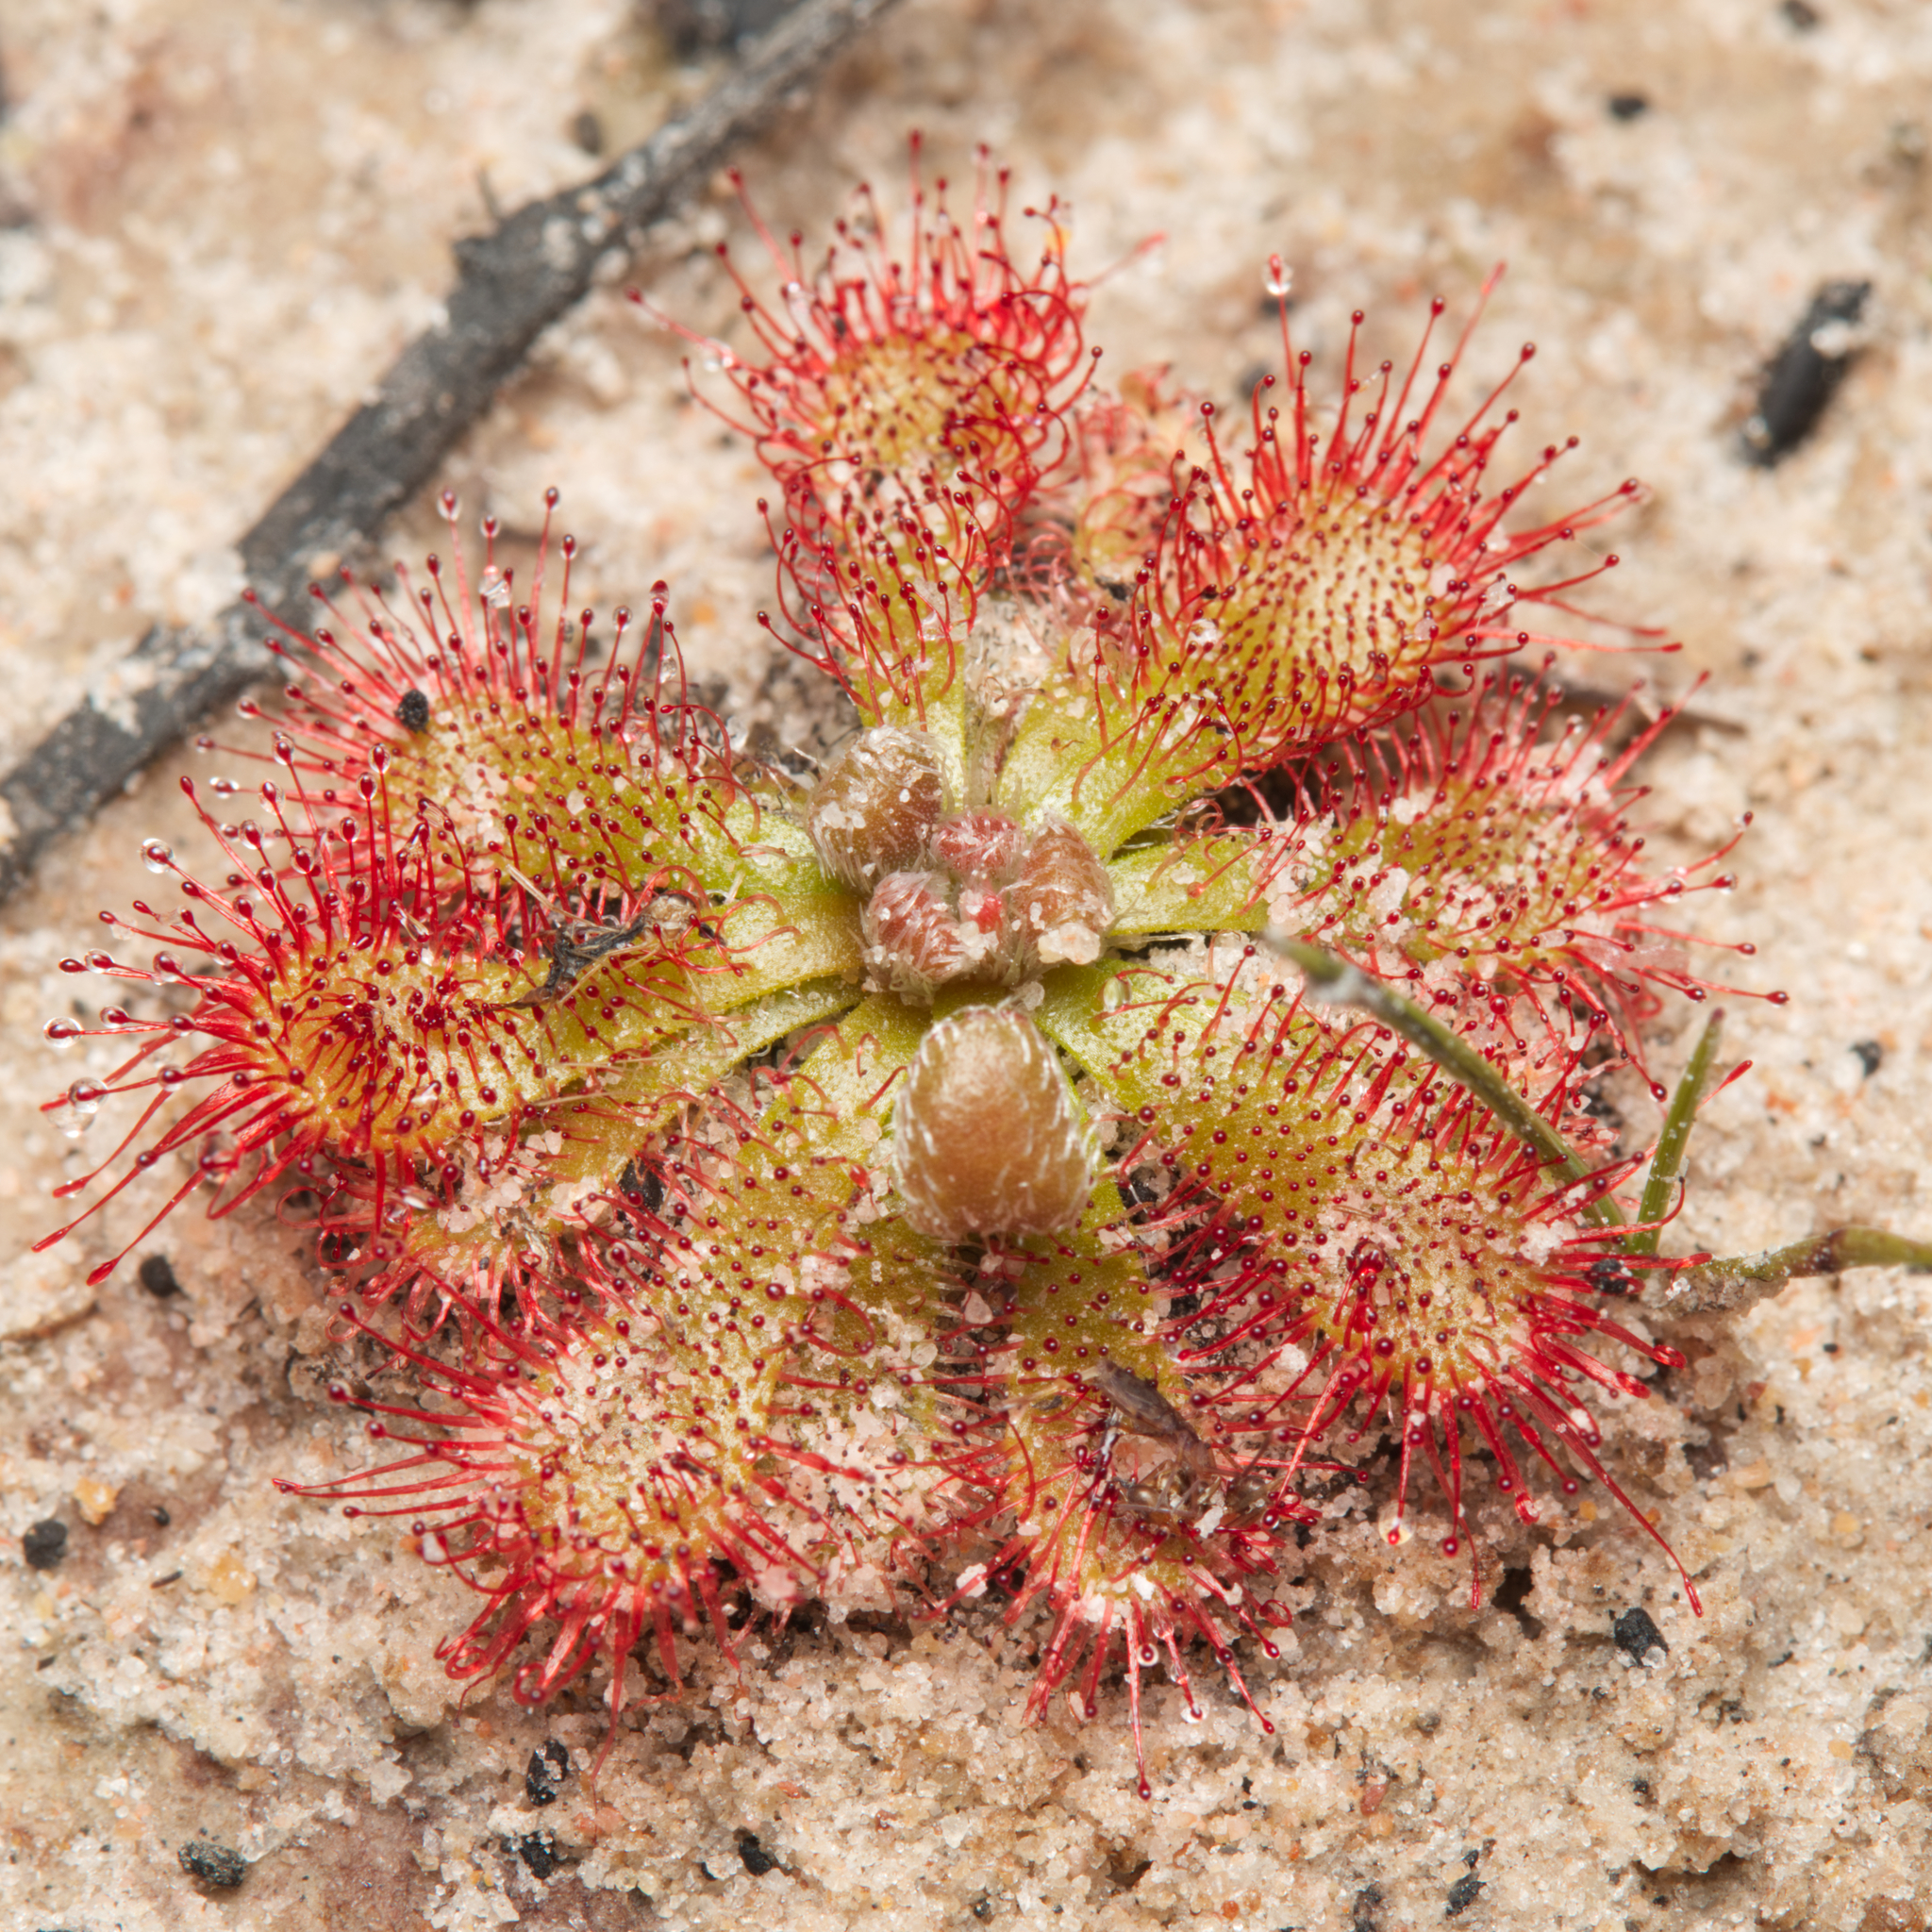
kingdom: Plantae
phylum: Tracheophyta
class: Magnoliopsida
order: Caryophyllales
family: Droseraceae
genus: Drosera
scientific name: Drosera spatulata
